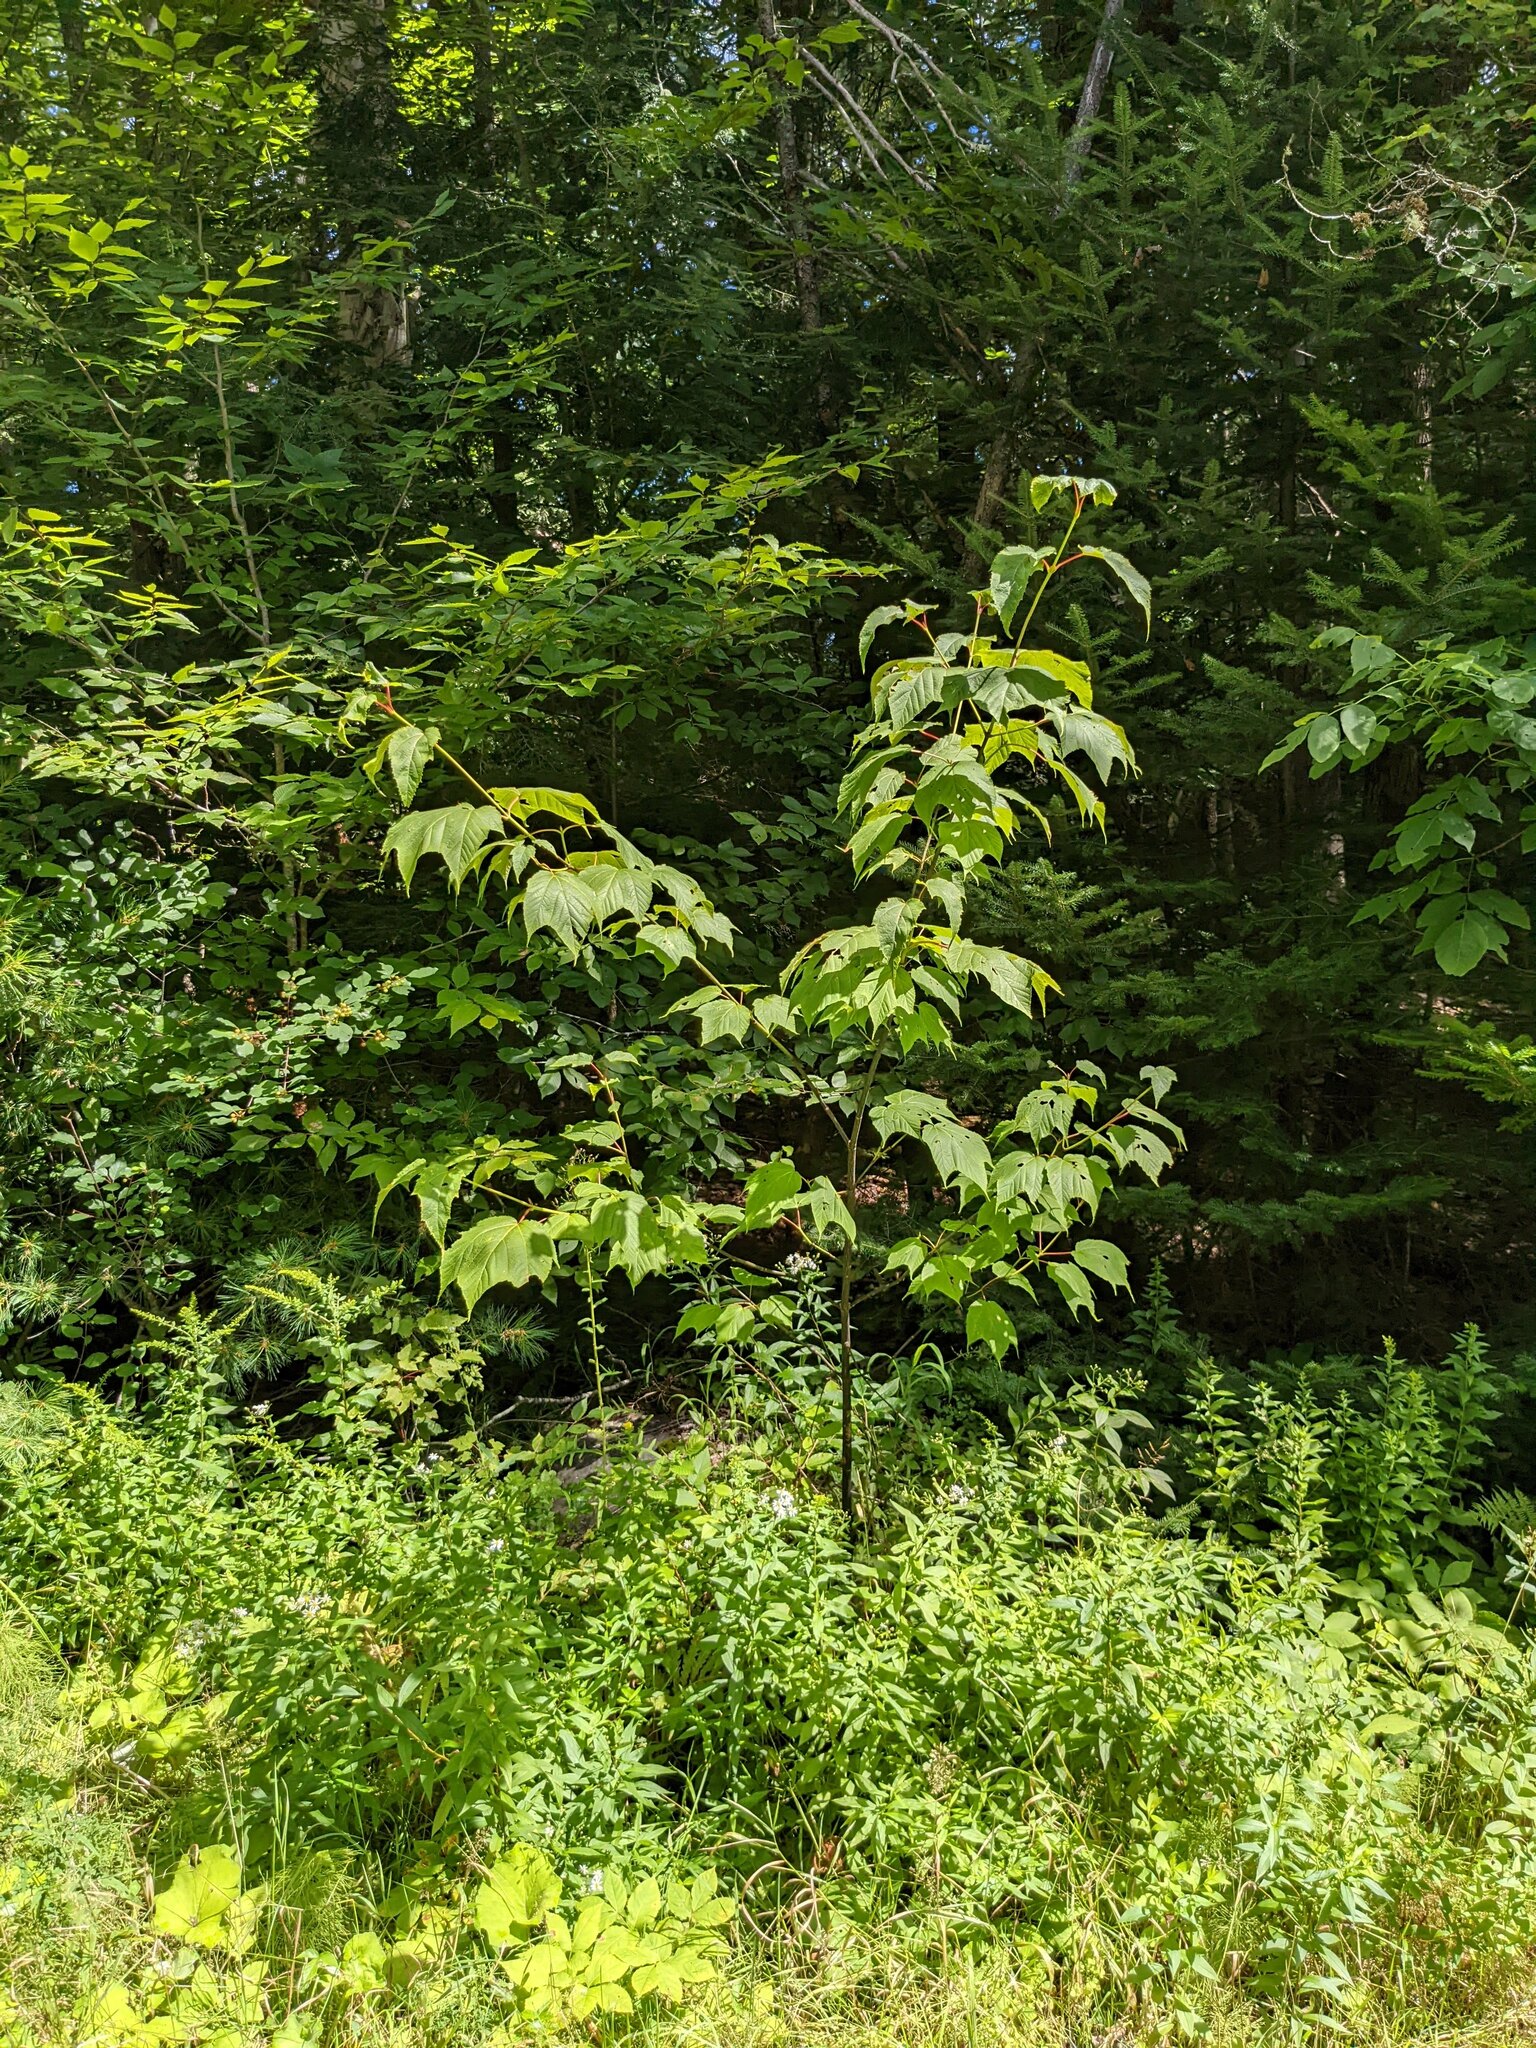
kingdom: Plantae
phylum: Tracheophyta
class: Magnoliopsida
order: Sapindales
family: Sapindaceae
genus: Acer
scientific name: Acer pensylvanicum
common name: Moosewood
